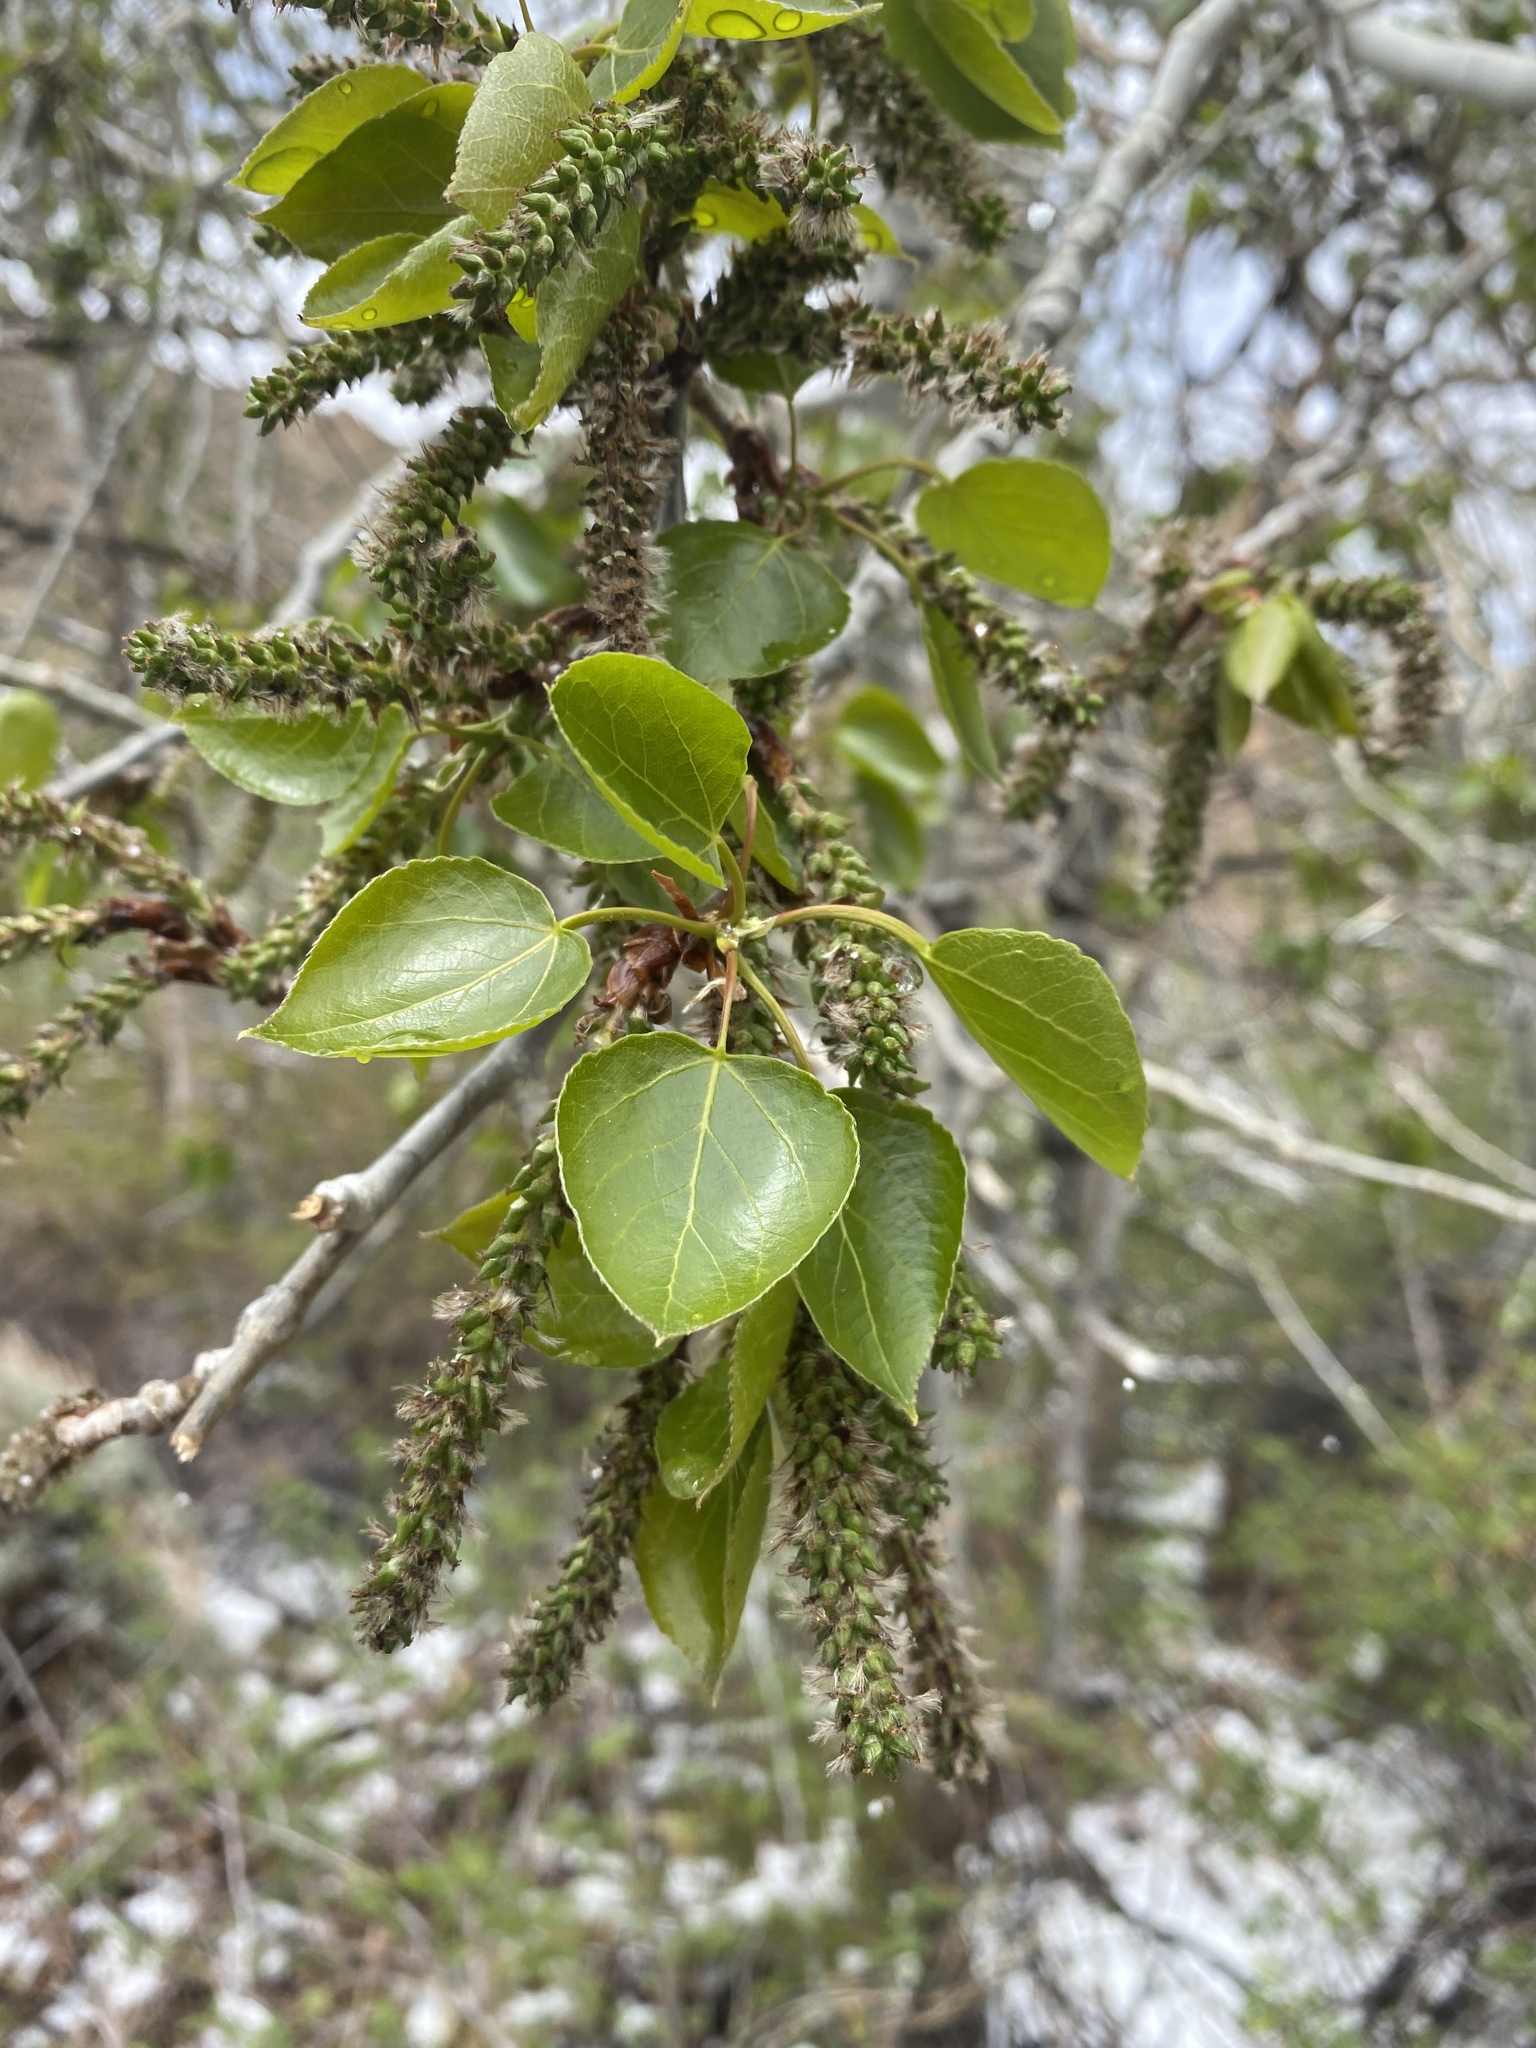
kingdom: Plantae
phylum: Tracheophyta
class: Magnoliopsida
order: Malpighiales
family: Salicaceae
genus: Populus
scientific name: Populus tremuloides
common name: Quaking aspen
